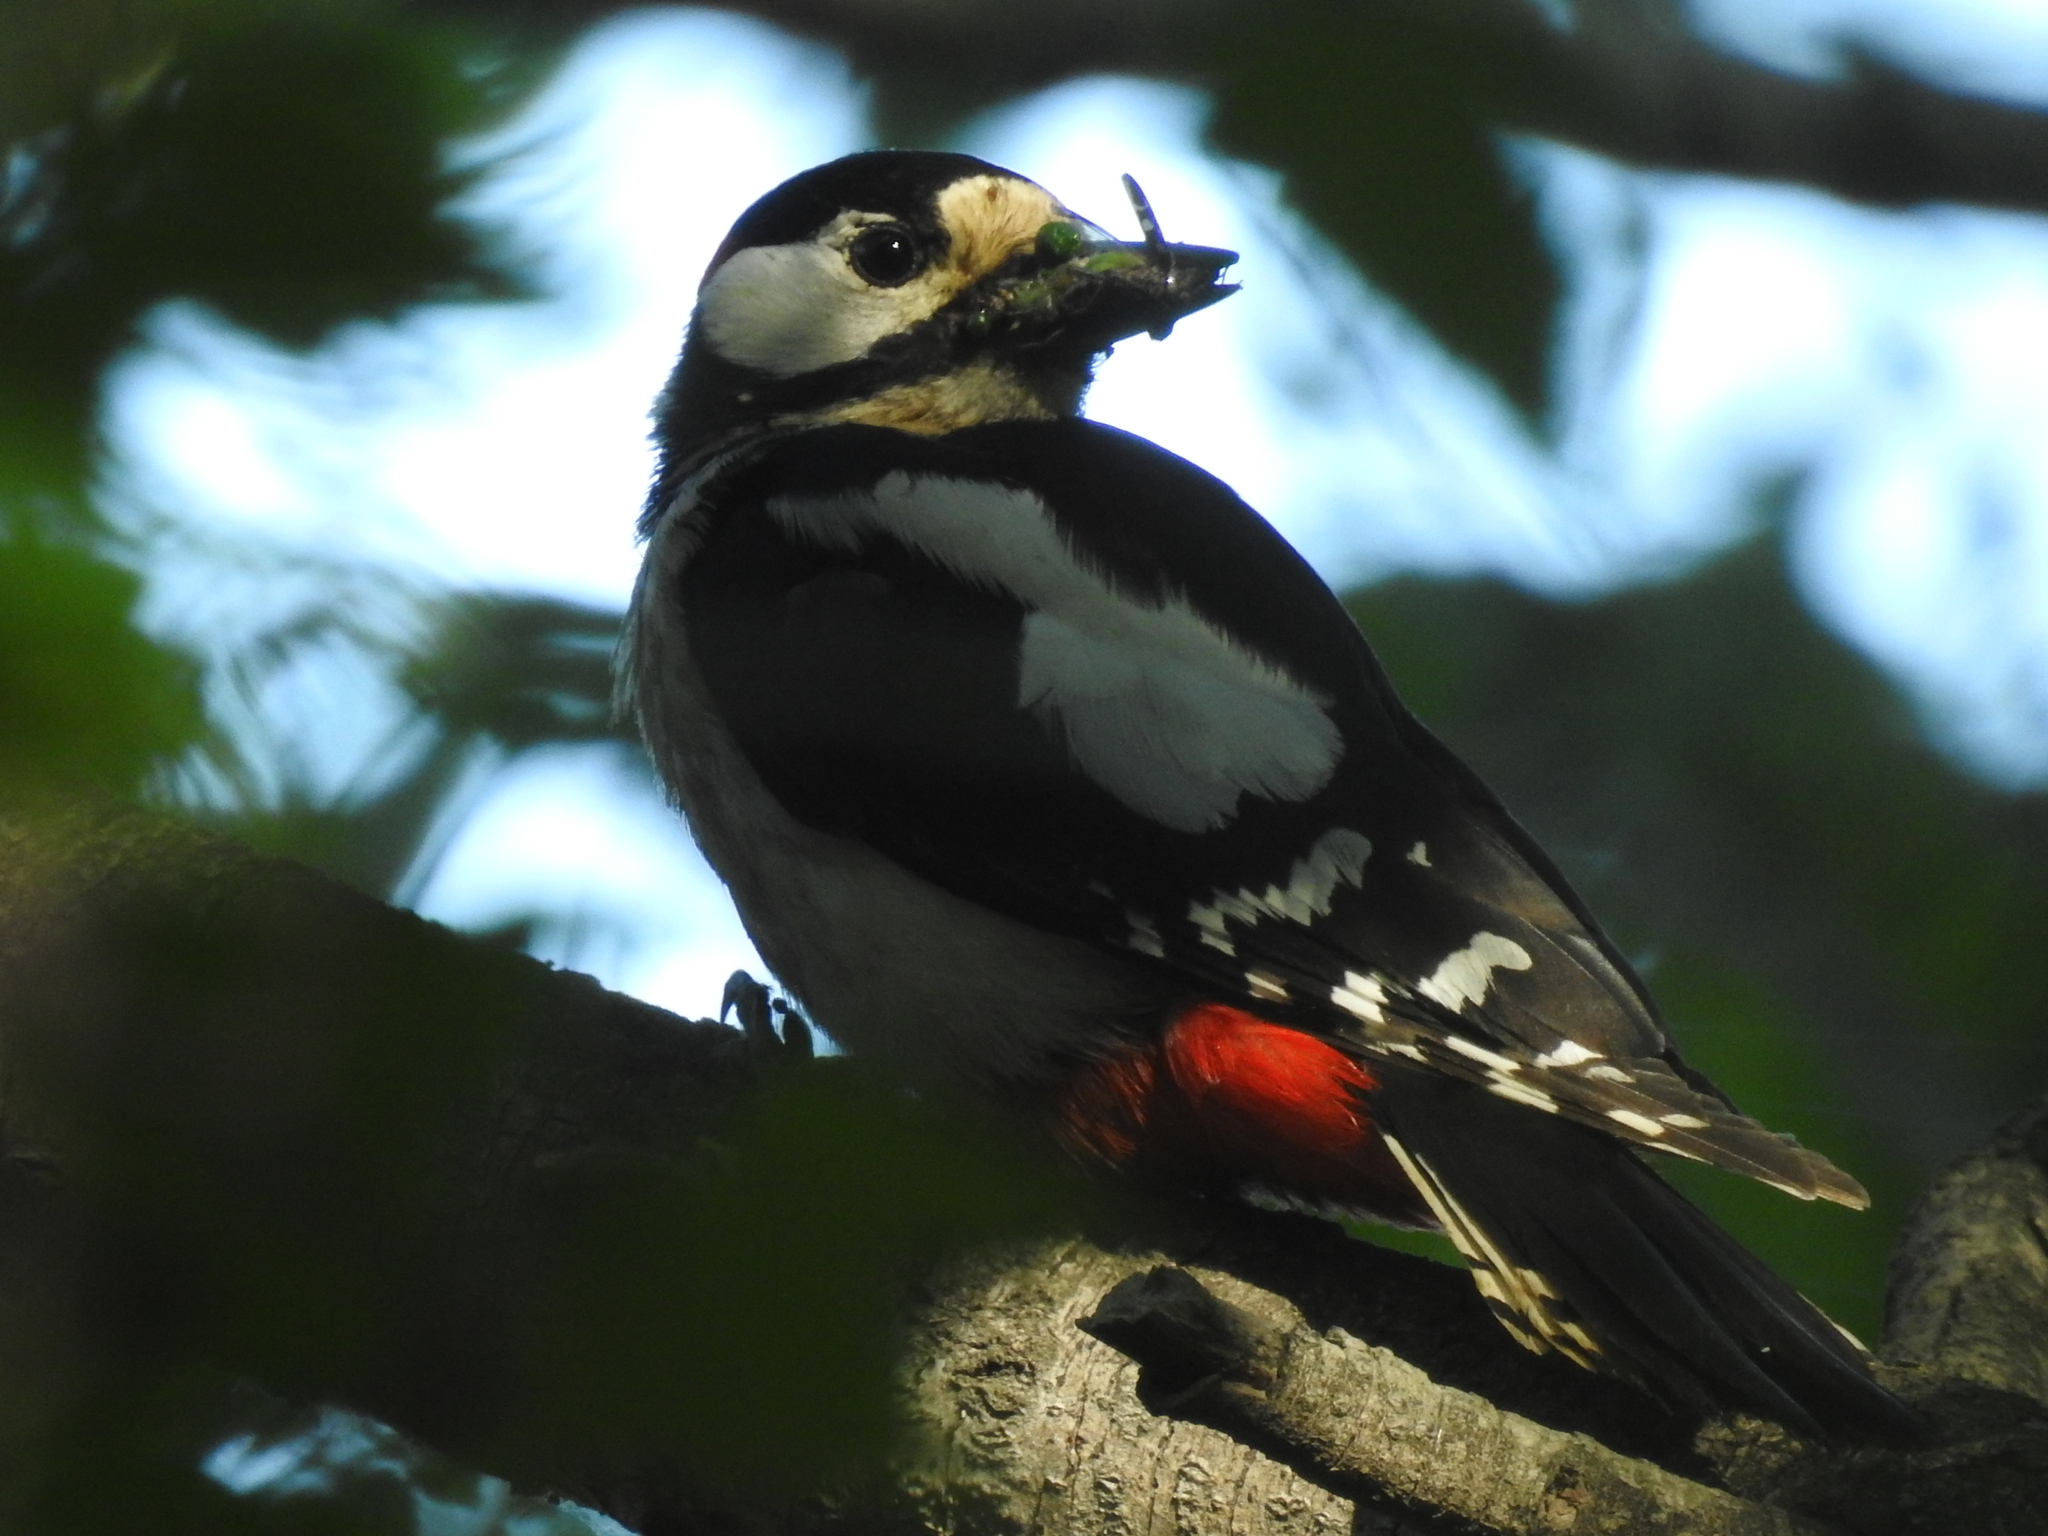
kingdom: Animalia
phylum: Chordata
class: Aves
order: Piciformes
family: Picidae
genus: Dendrocopos
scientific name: Dendrocopos major
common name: Great spotted woodpecker
